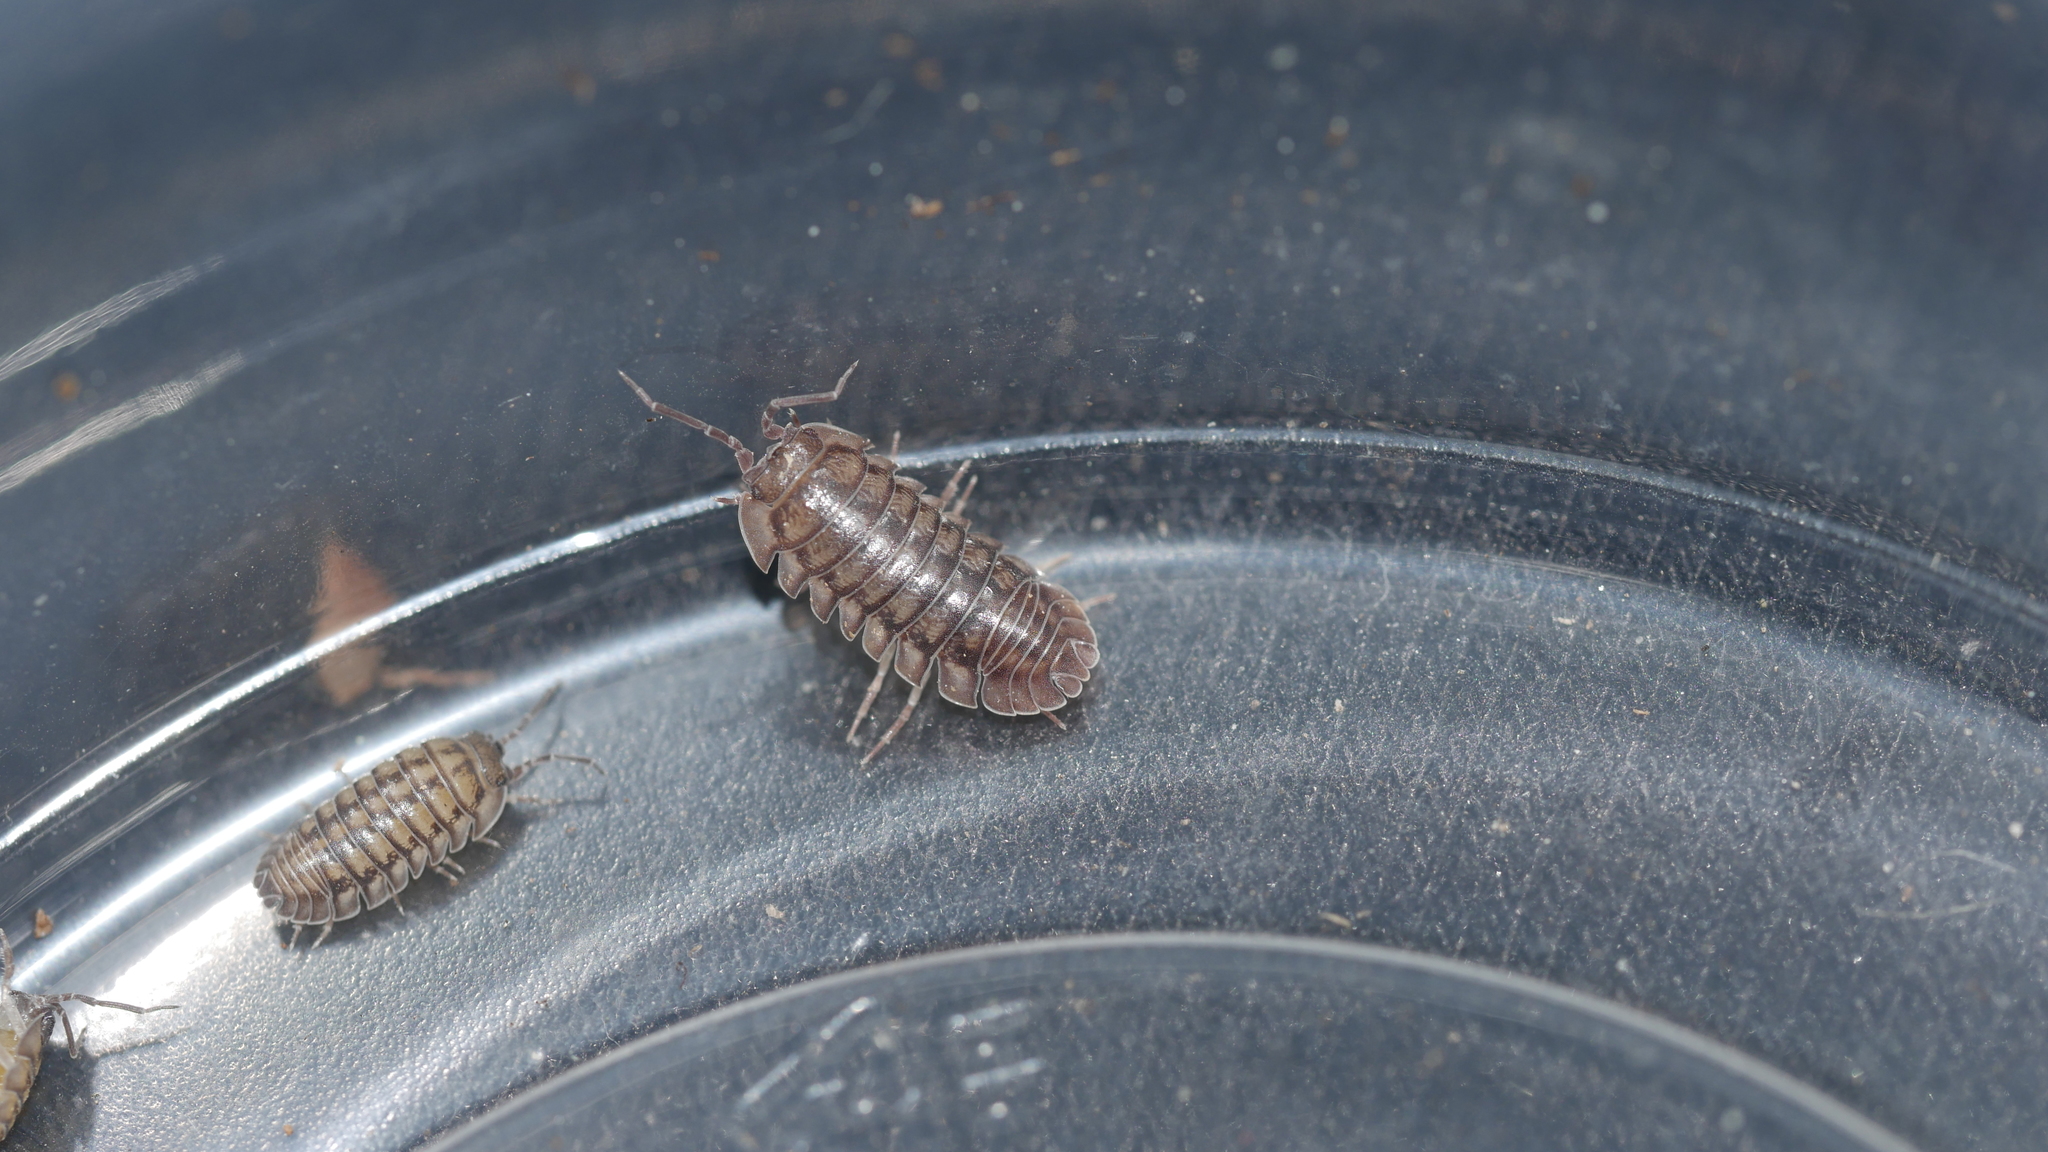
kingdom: Animalia
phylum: Arthropoda
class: Malacostraca
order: Isopoda
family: Armadillidiidae
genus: Armadillidium
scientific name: Armadillidium nasatum
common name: Isopod
